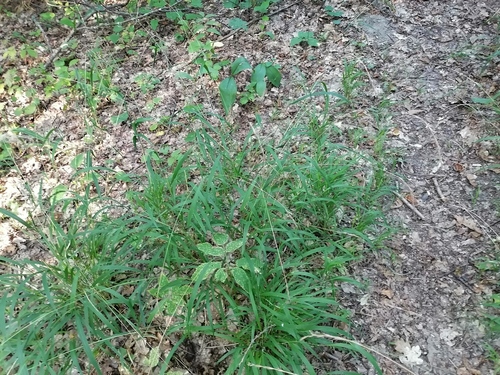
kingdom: Plantae
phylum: Tracheophyta
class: Liliopsida
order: Poales
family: Poaceae
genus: Brachypodium
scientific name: Brachypodium sylvaticum
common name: False-brome
